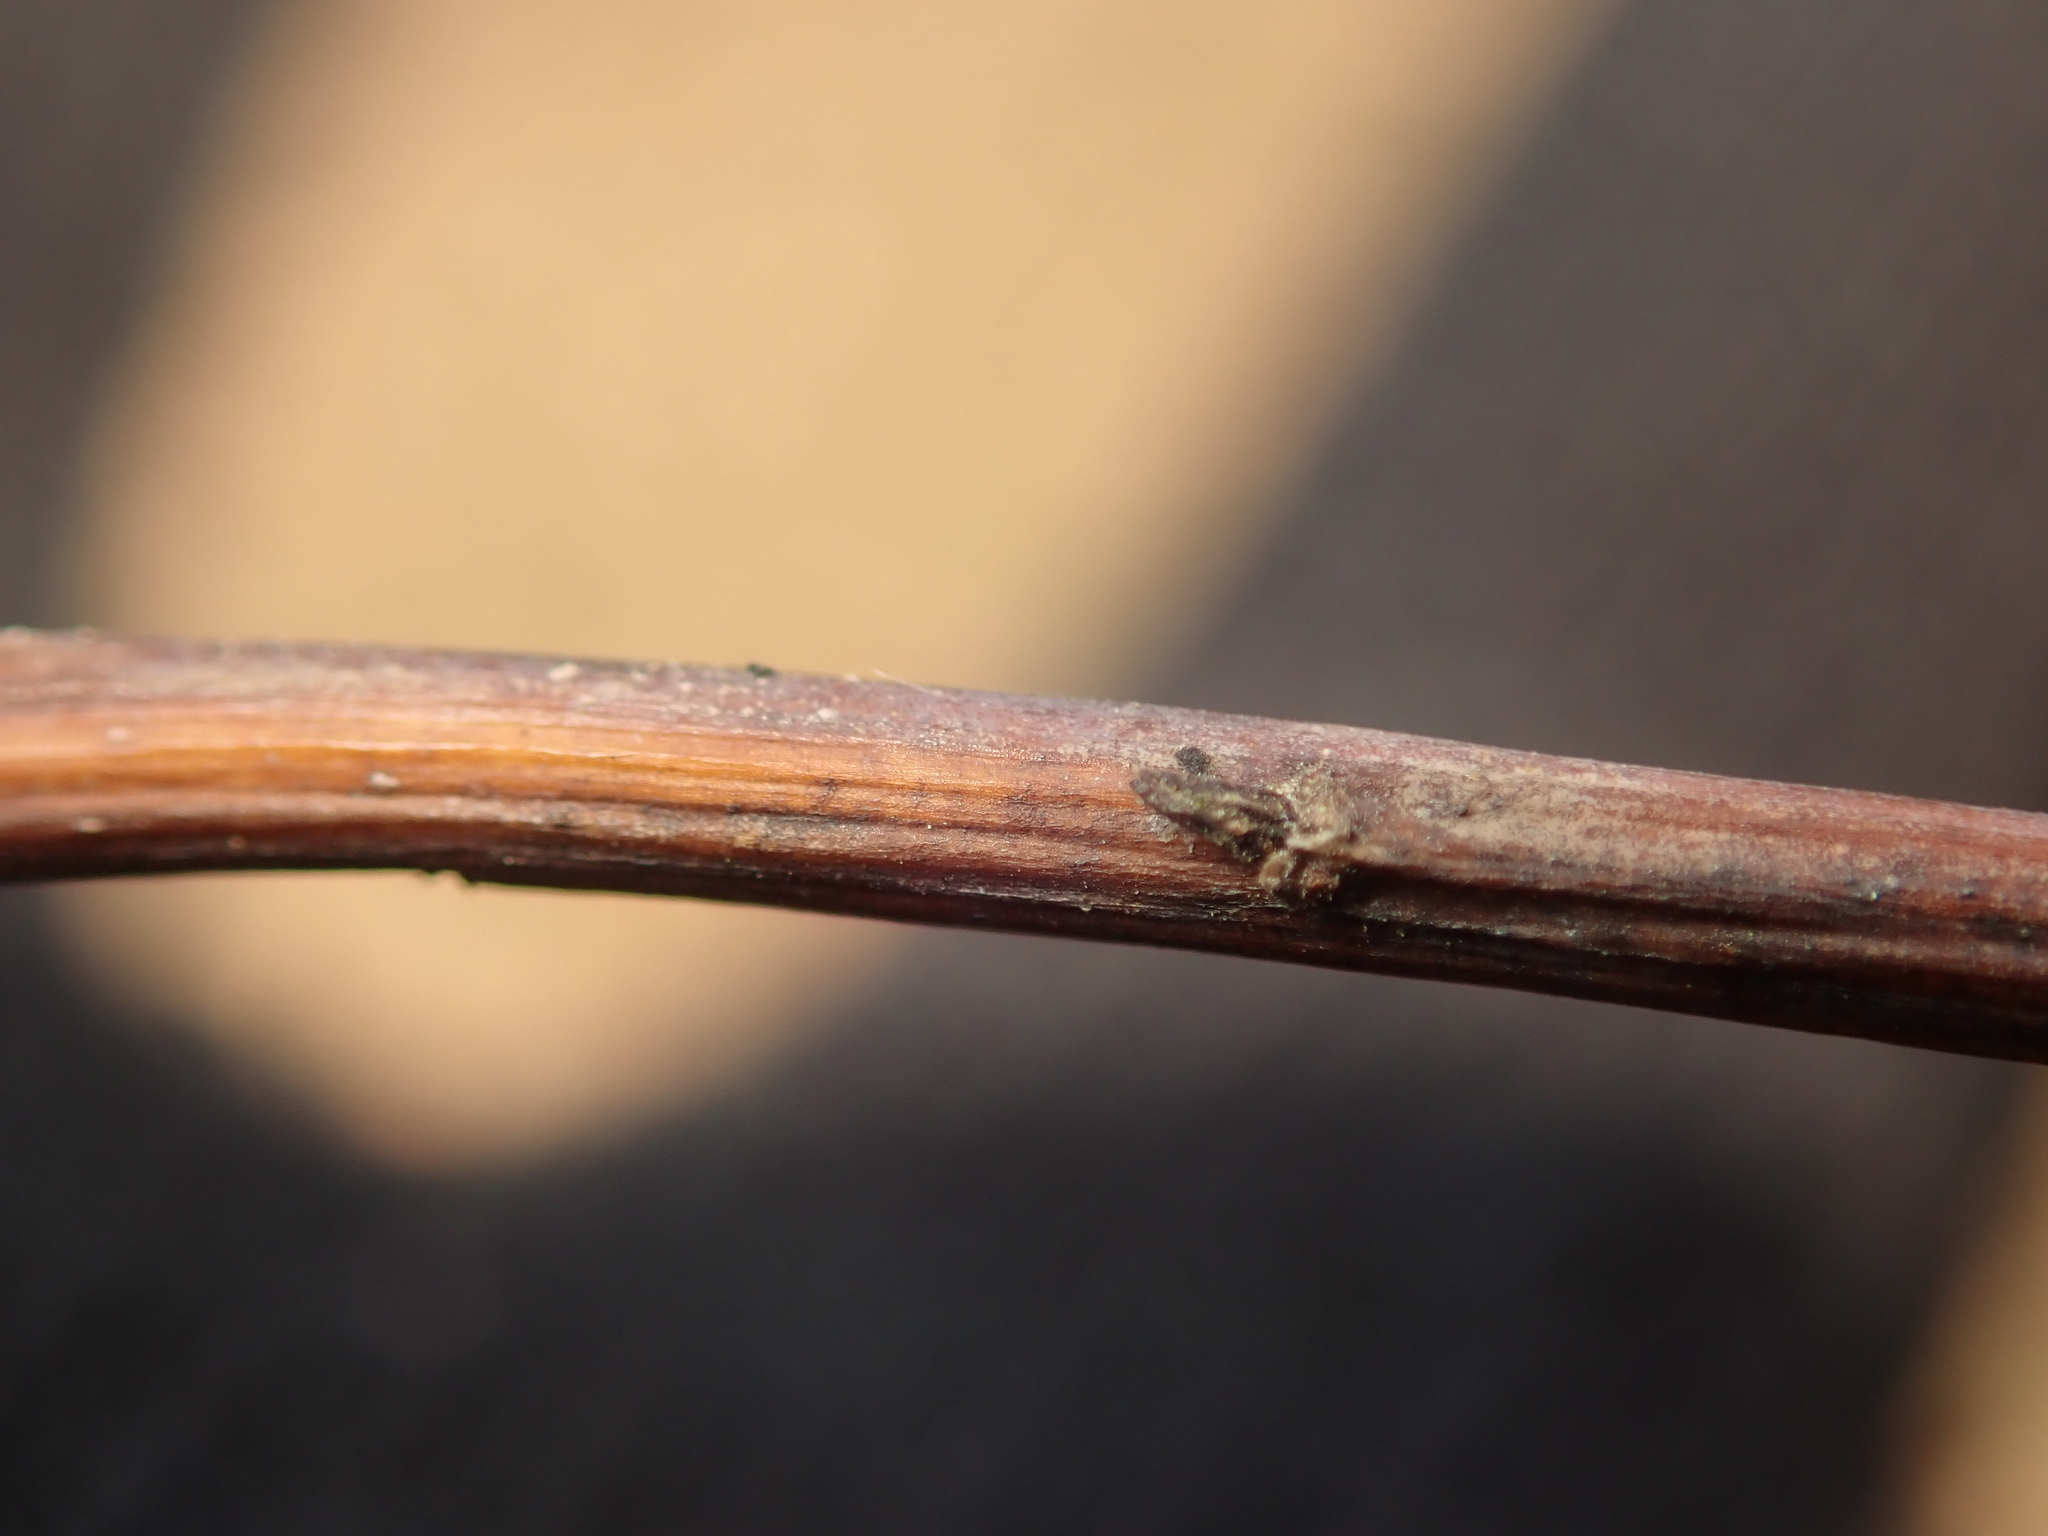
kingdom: Plantae
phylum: Tracheophyta
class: Magnoliopsida
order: Asterales
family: Asteraceae
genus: Solidago
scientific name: Solidago gigantea
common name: Giant goldenrod
